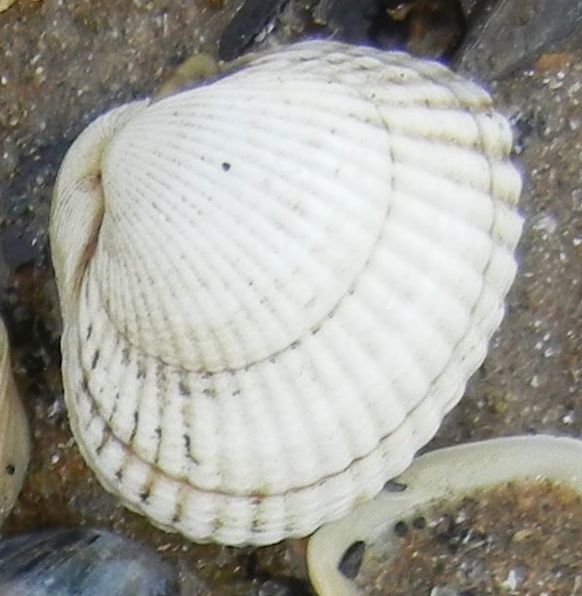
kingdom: Animalia
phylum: Mollusca
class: Bivalvia
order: Cardiida
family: Cardiidae
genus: Cerastoderma
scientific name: Cerastoderma edule
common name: Common cockle
